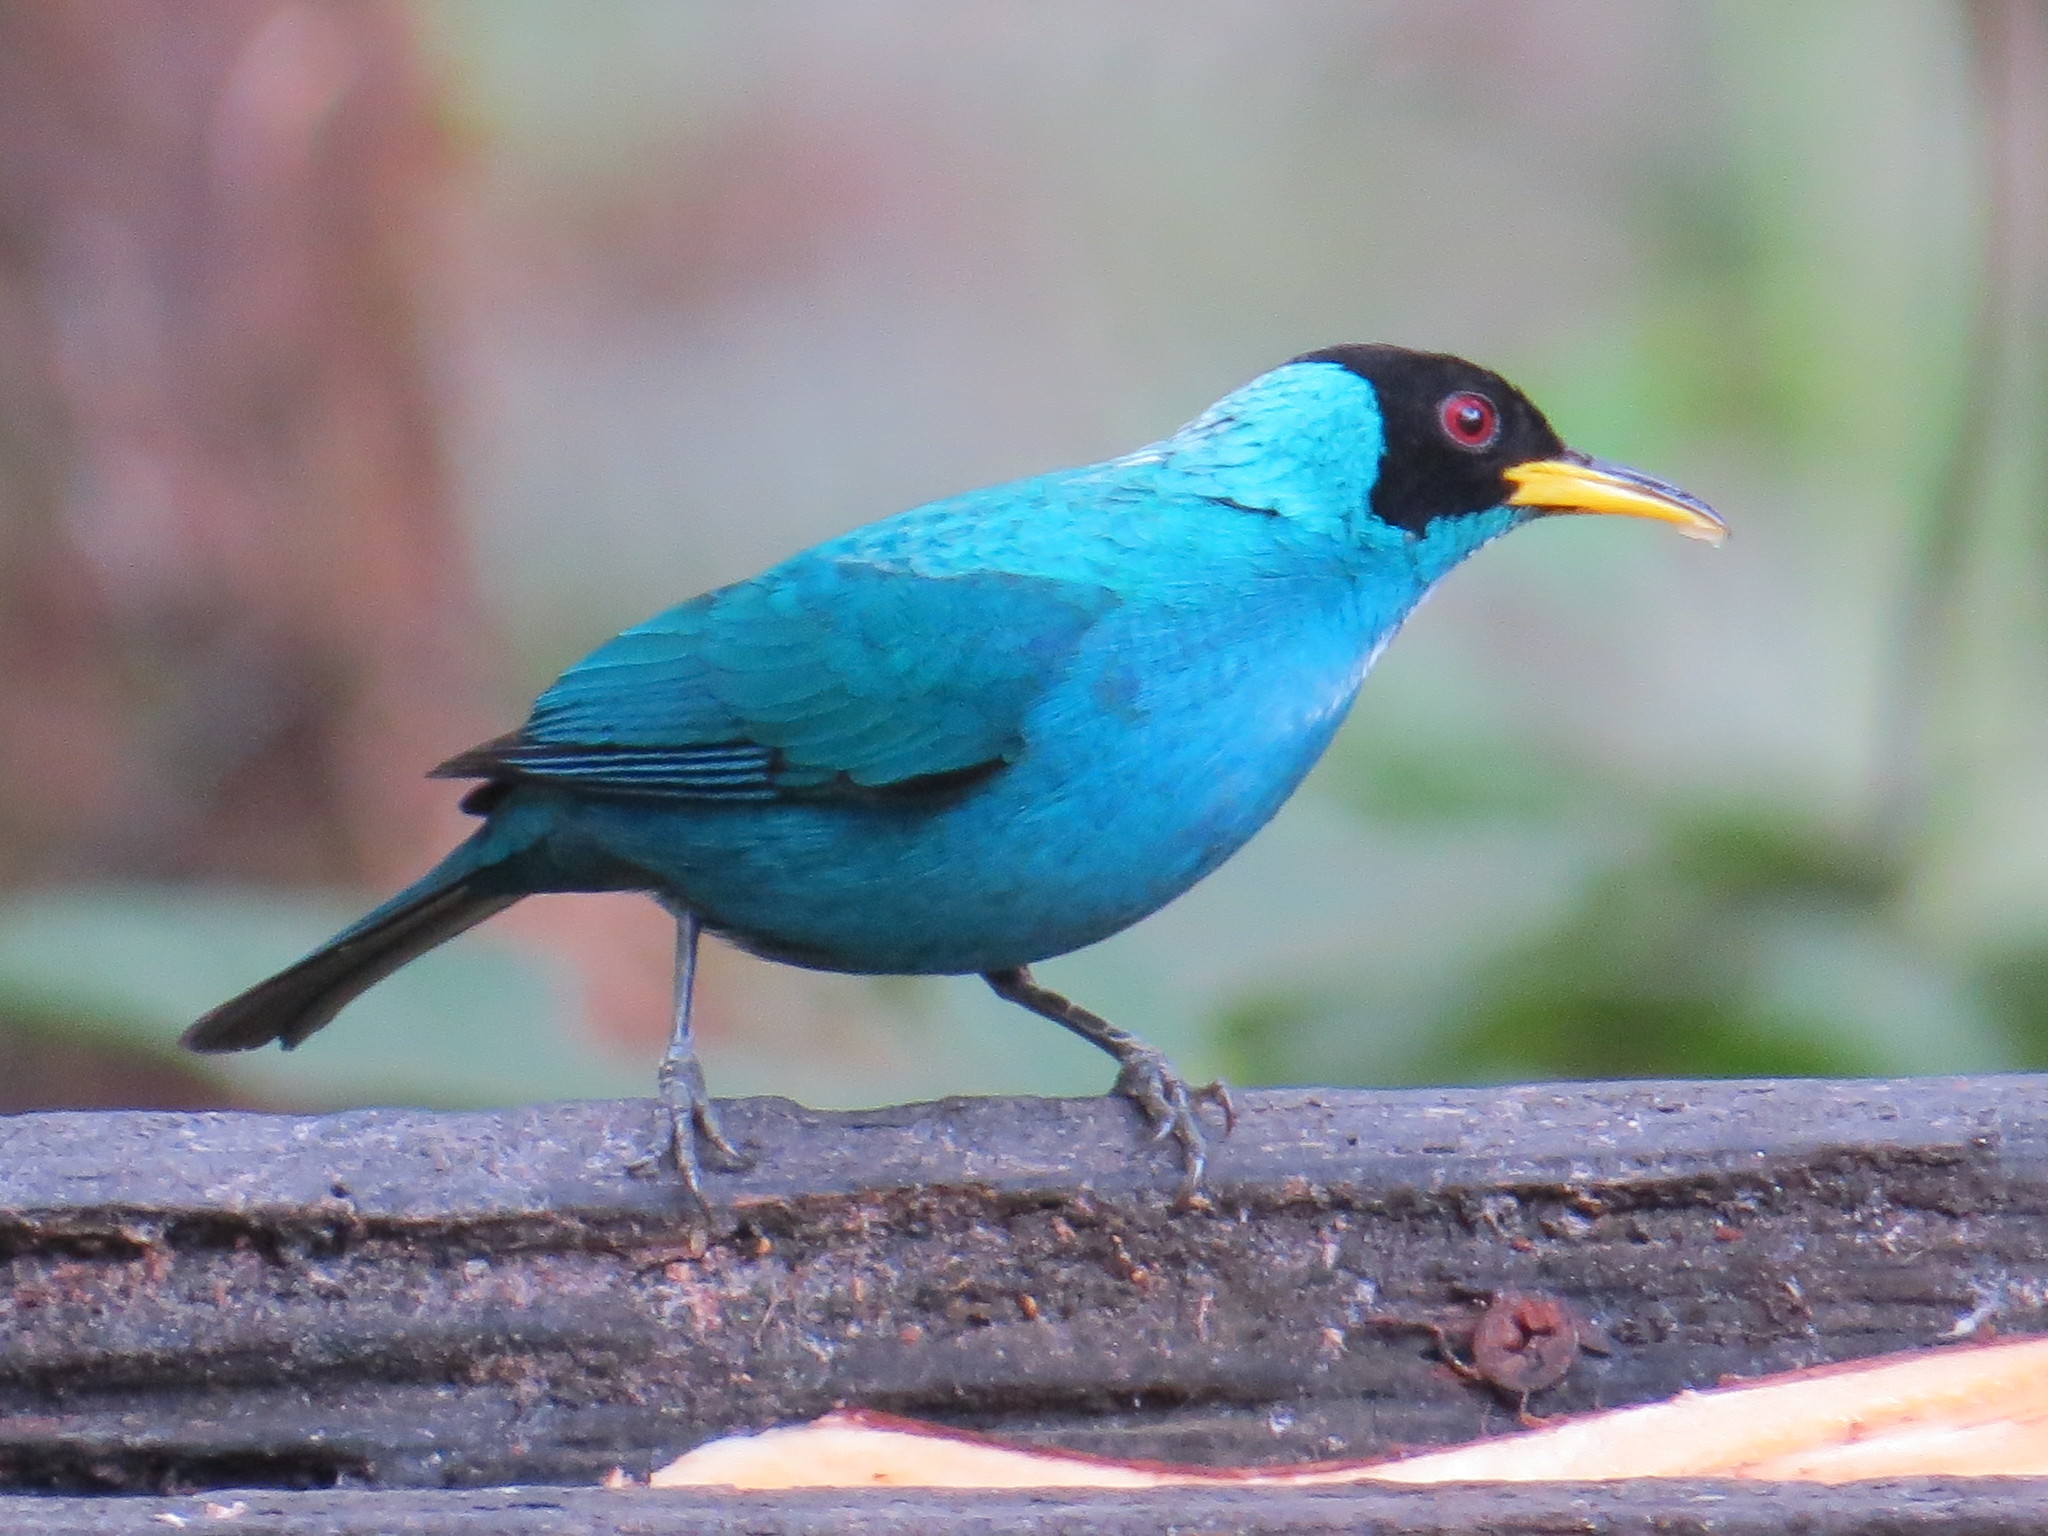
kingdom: Animalia
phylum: Chordata
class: Aves
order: Passeriformes
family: Thraupidae
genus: Chlorophanes
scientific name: Chlorophanes spiza
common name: Green honeycreeper
